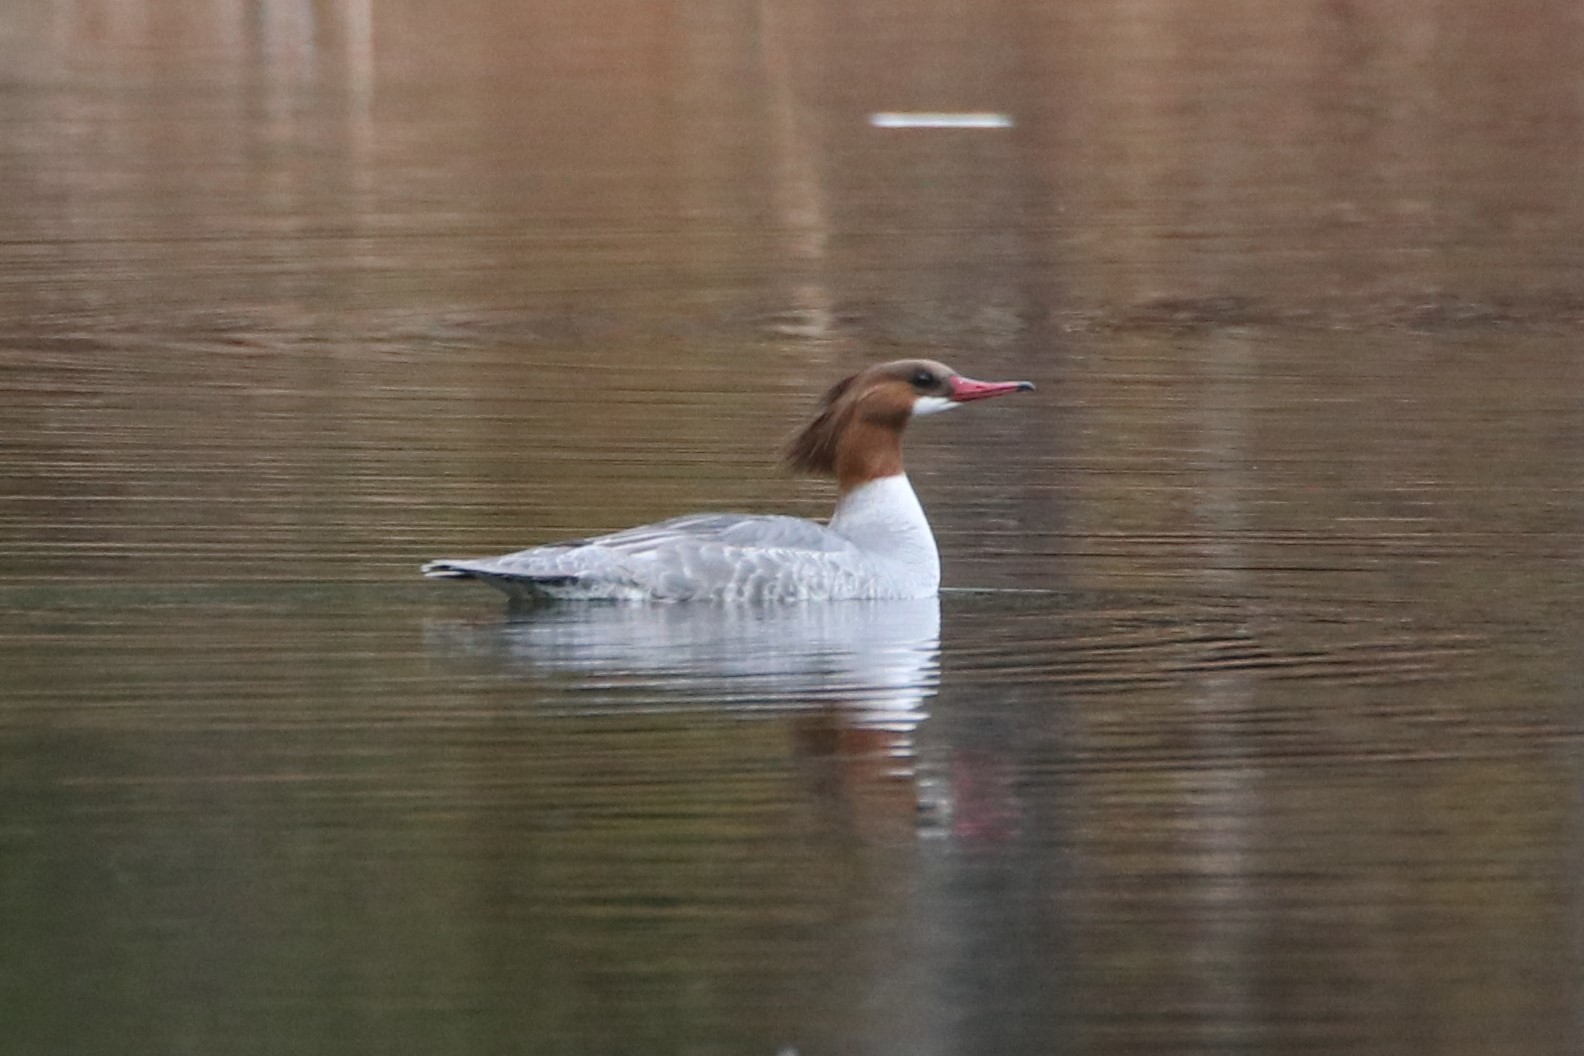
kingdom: Animalia
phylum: Chordata
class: Aves
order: Anseriformes
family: Anatidae
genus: Mergus
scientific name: Mergus merganser
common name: Common merganser
